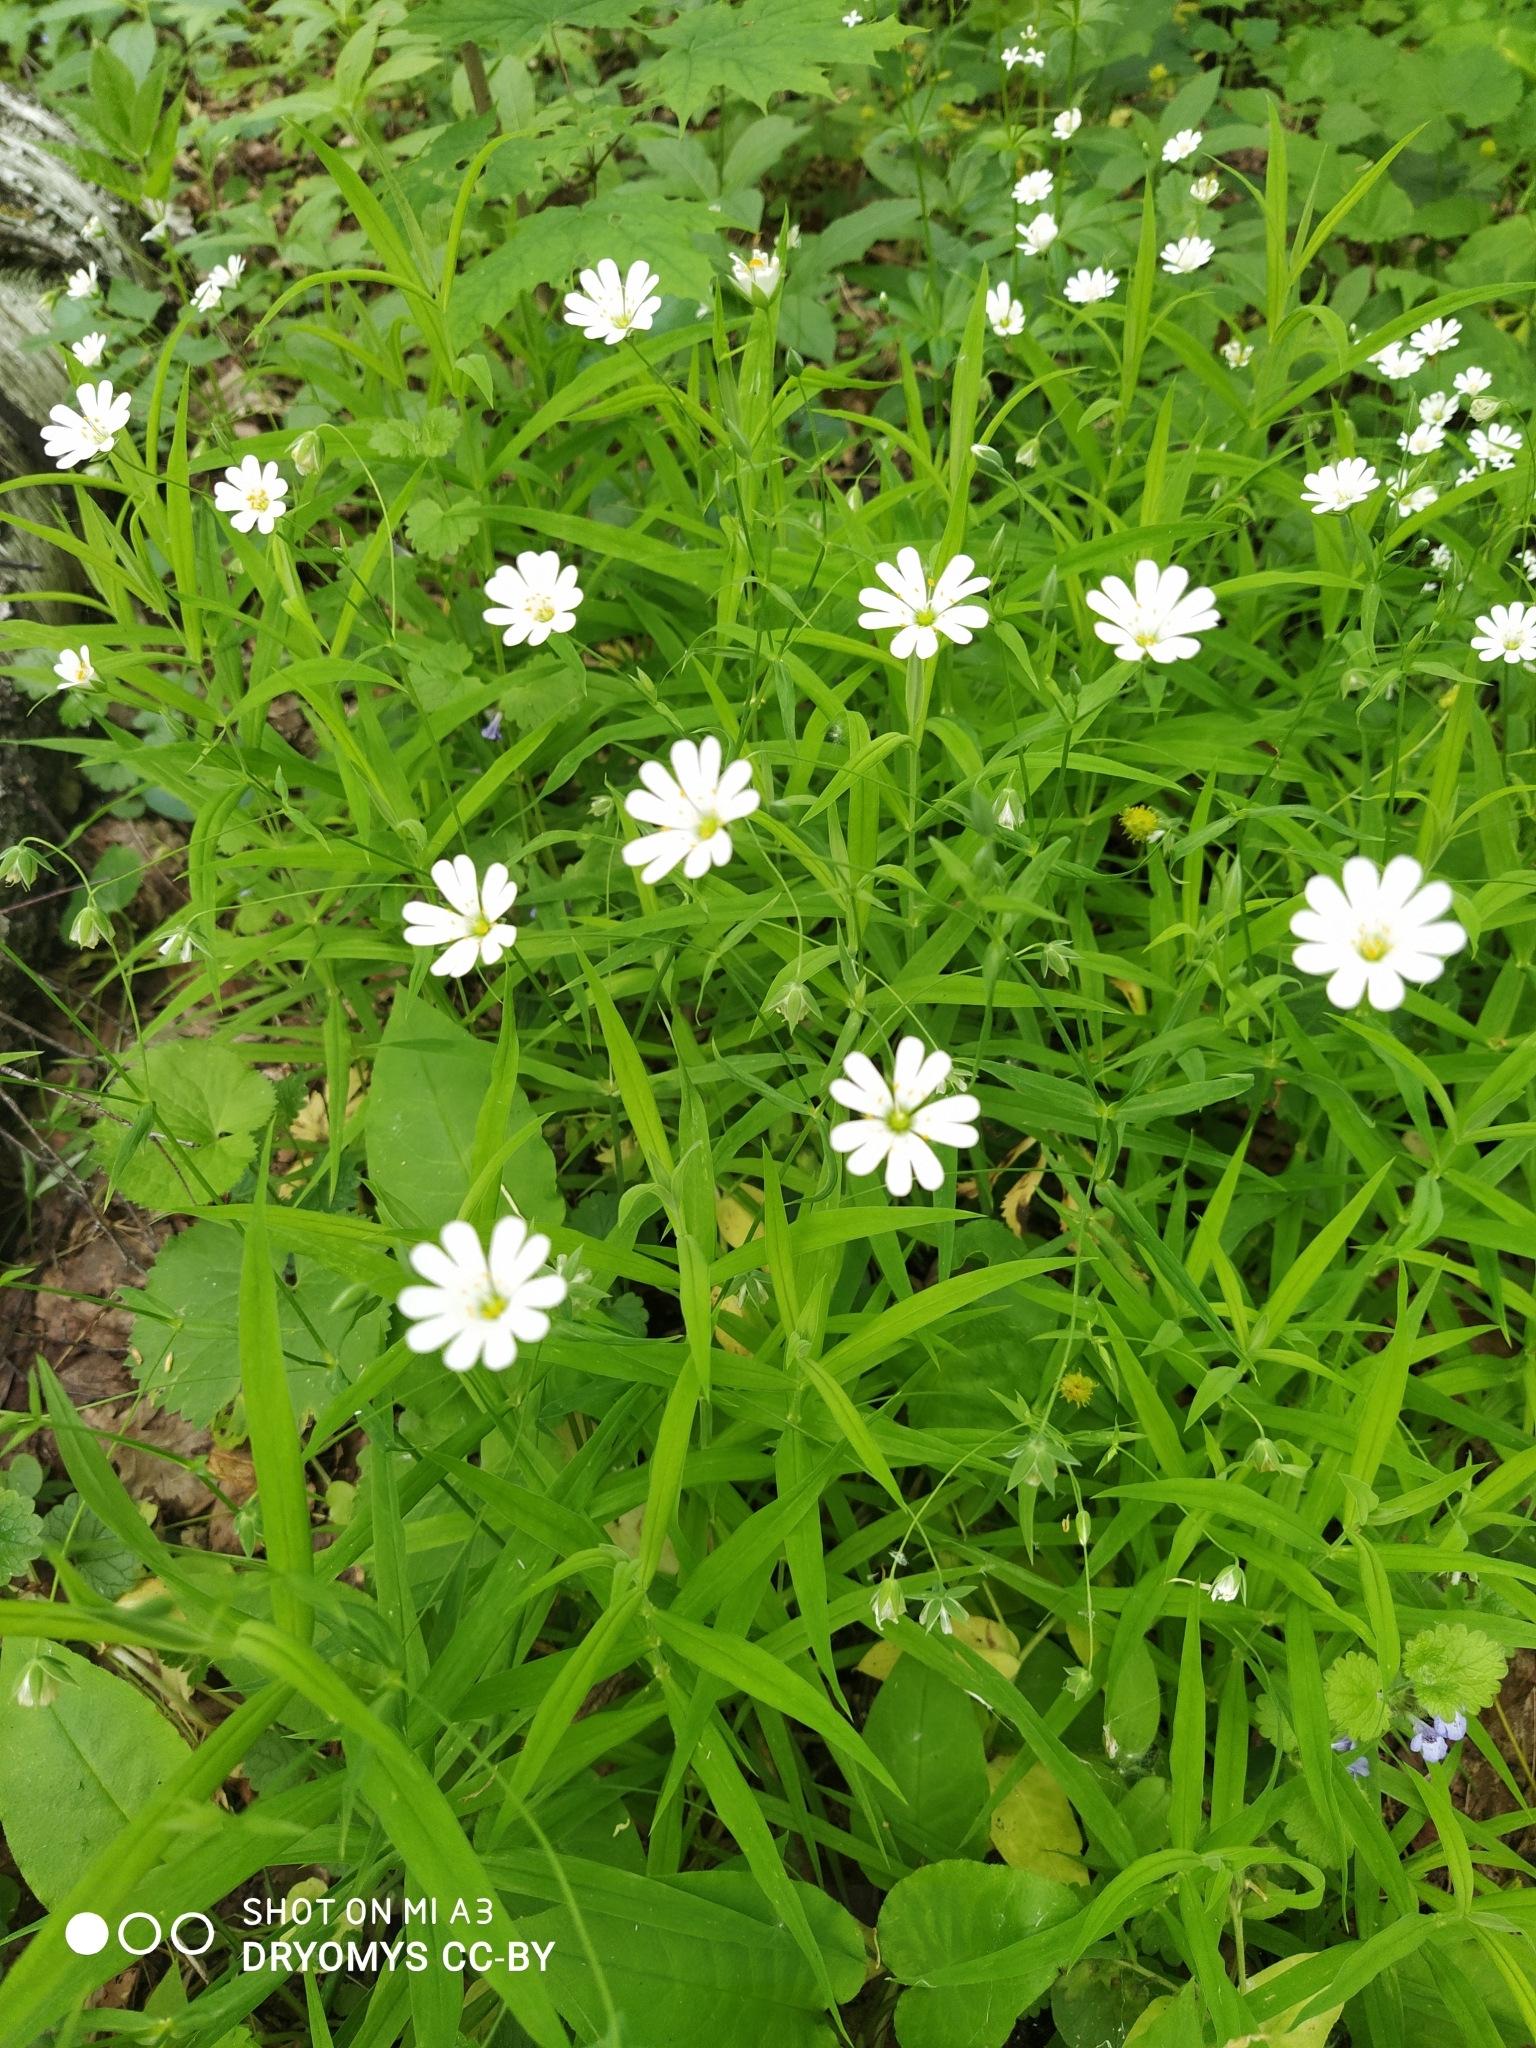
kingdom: Plantae
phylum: Tracheophyta
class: Magnoliopsida
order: Caryophyllales
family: Caryophyllaceae
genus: Rabelera
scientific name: Rabelera holostea
